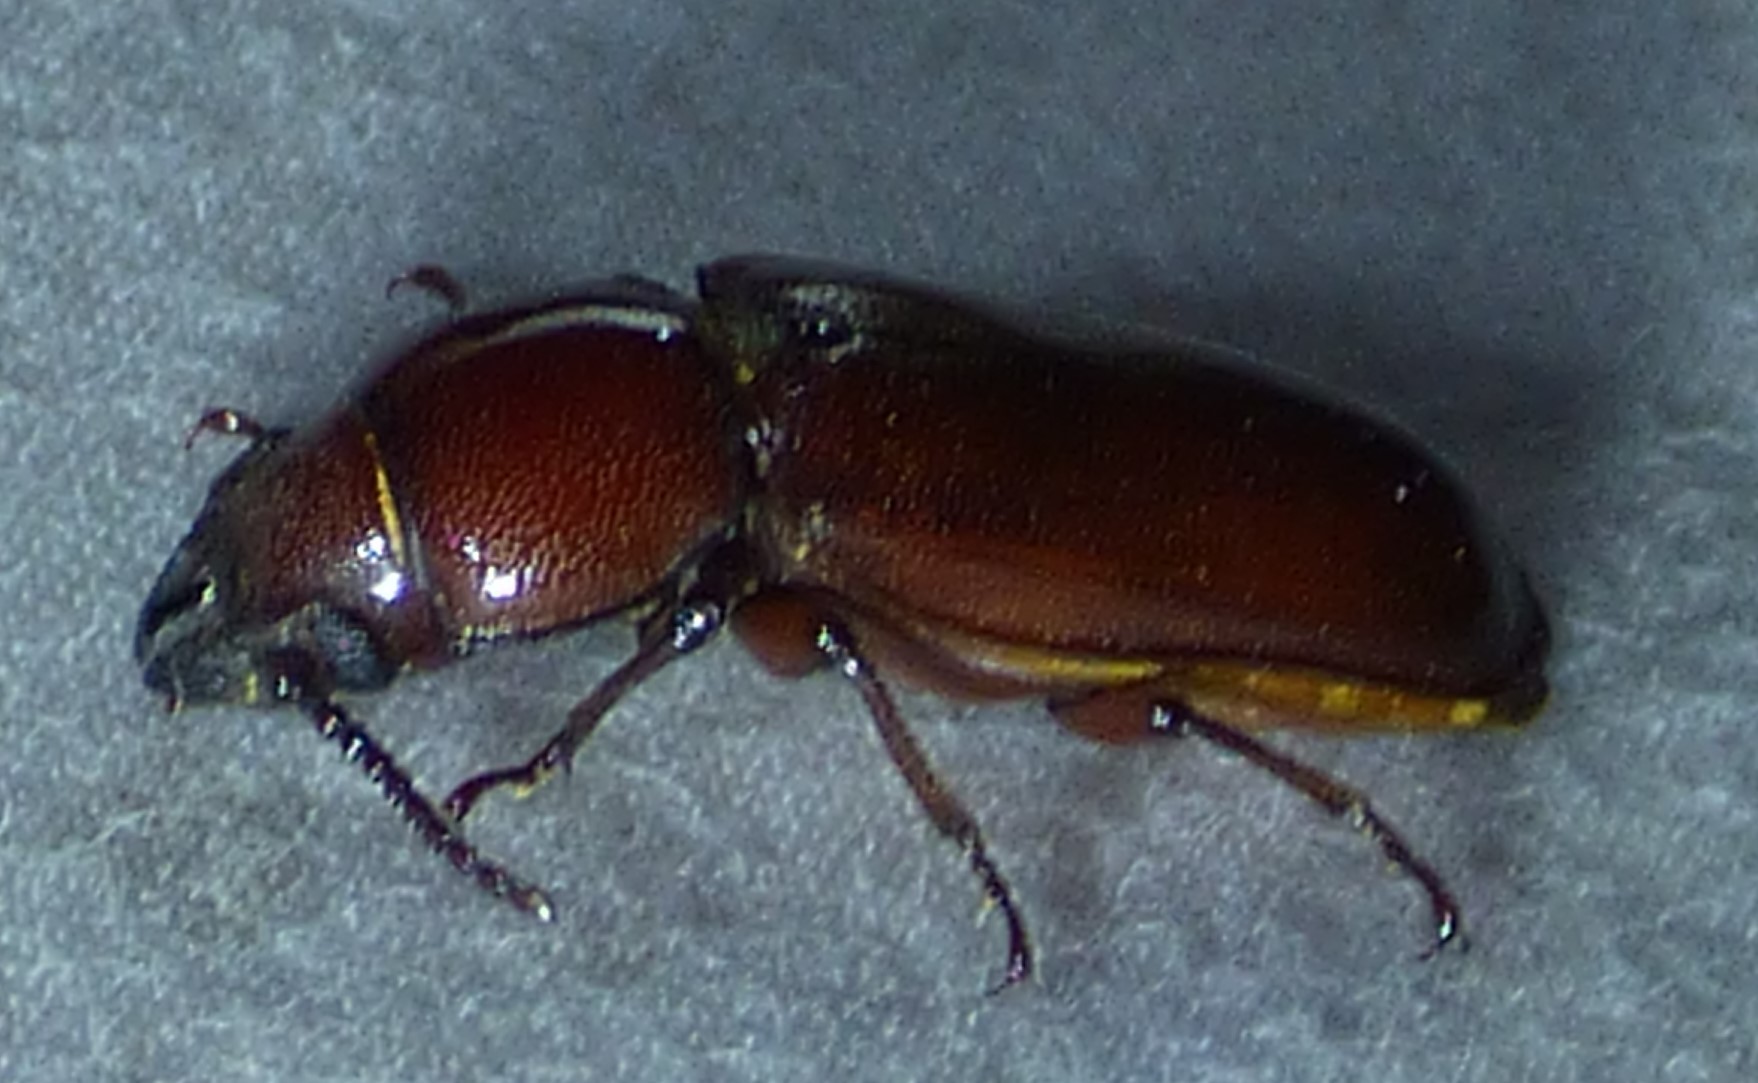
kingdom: Animalia
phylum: Arthropoda
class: Insecta
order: Coleoptera
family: Cerambycidae
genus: Neandra
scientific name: Neandra brunnea
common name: Pole borer
